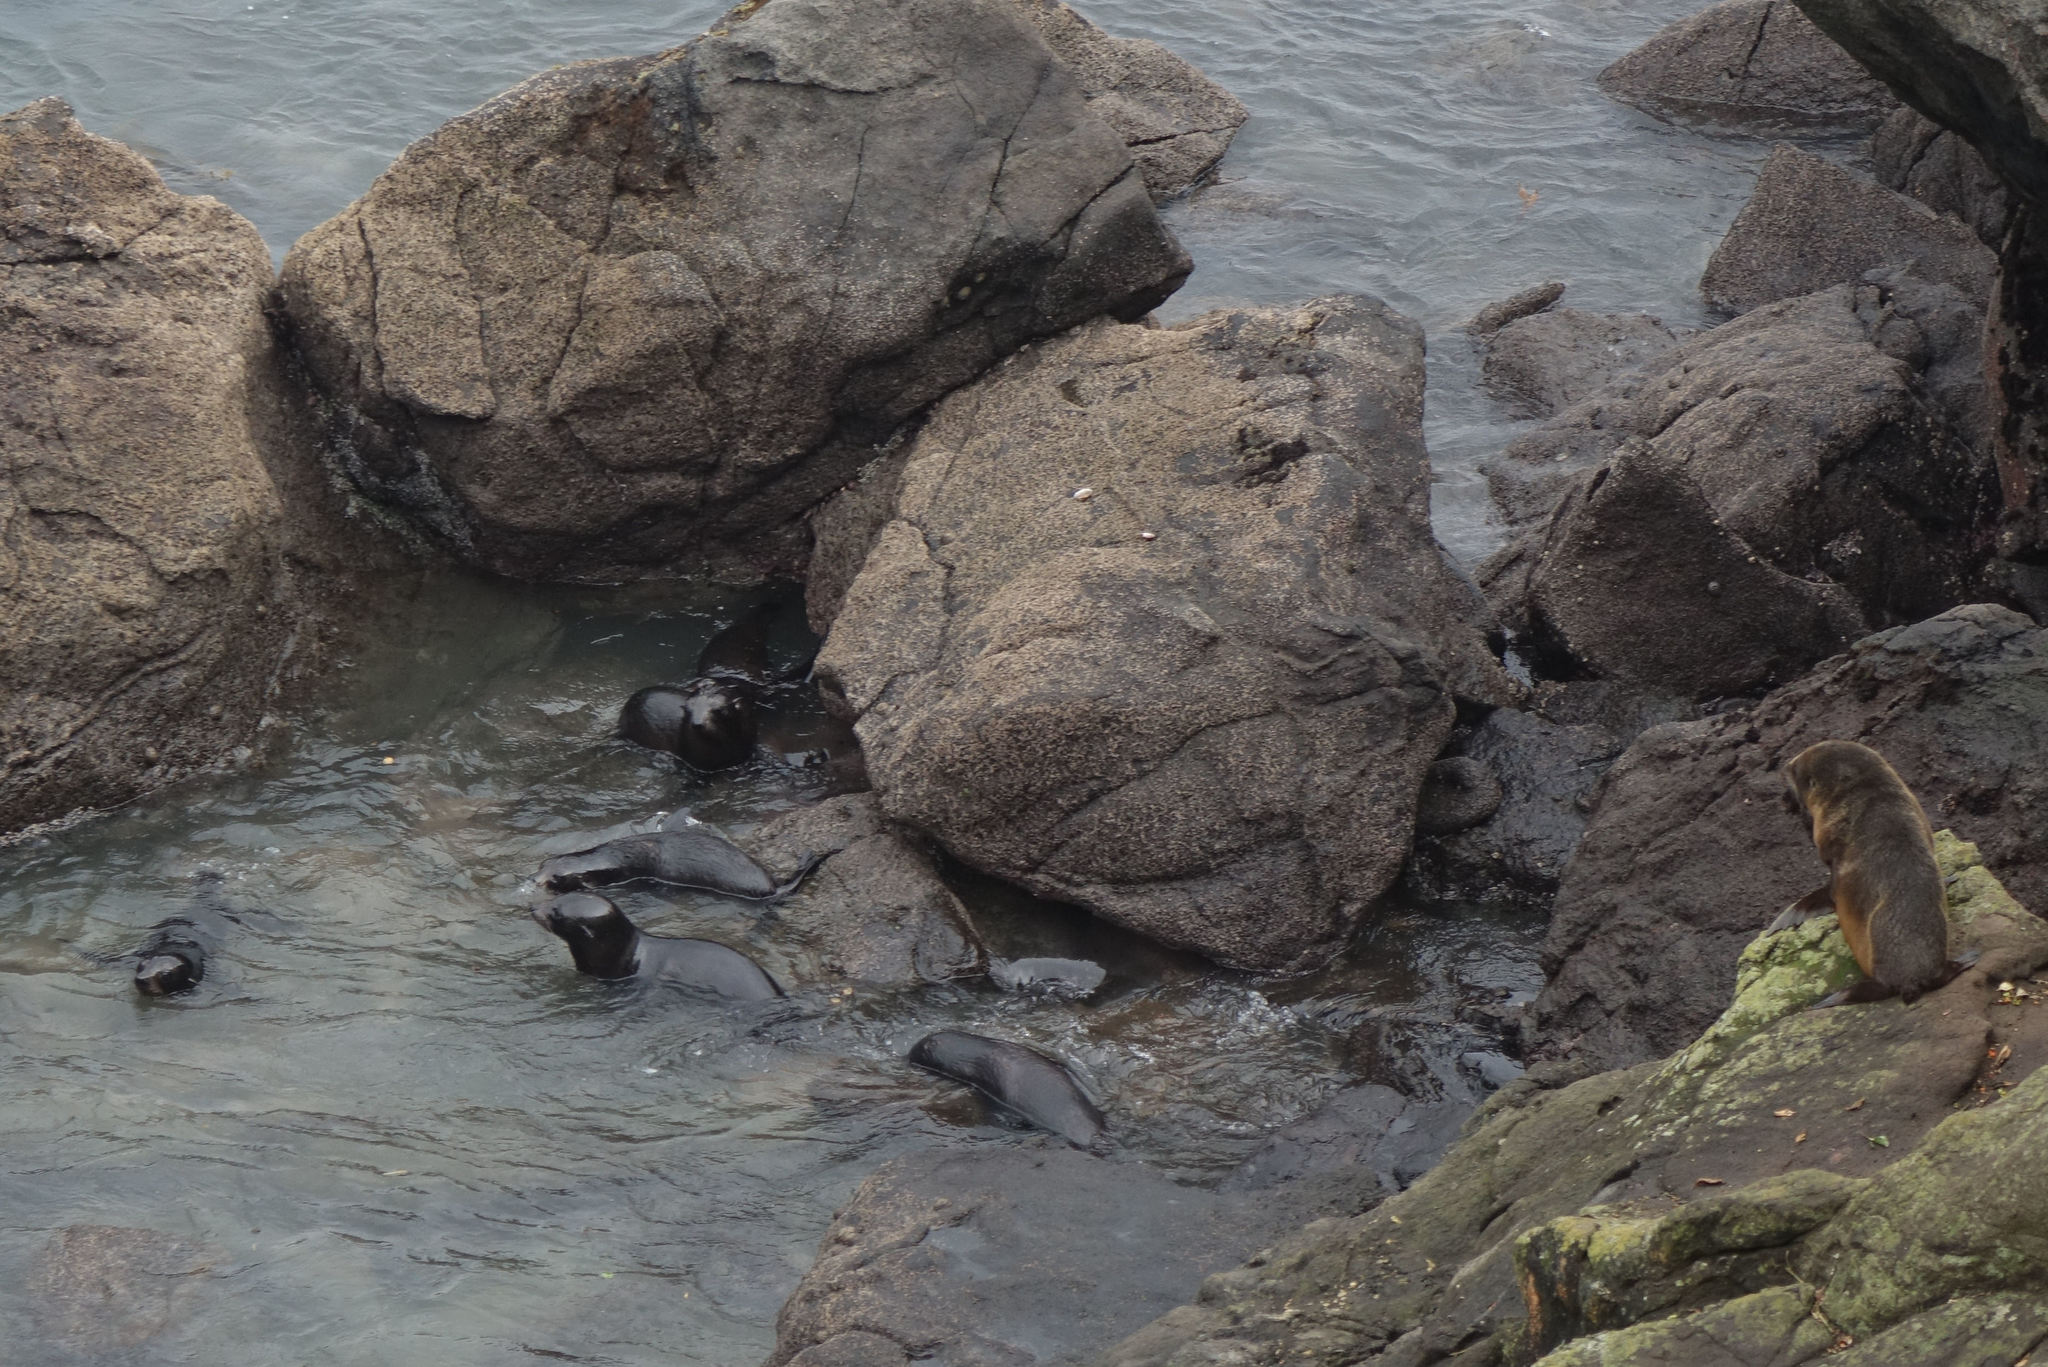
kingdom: Animalia
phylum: Chordata
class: Mammalia
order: Carnivora
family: Otariidae
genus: Arctocephalus
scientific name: Arctocephalus forsteri
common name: New zealand fur seal
